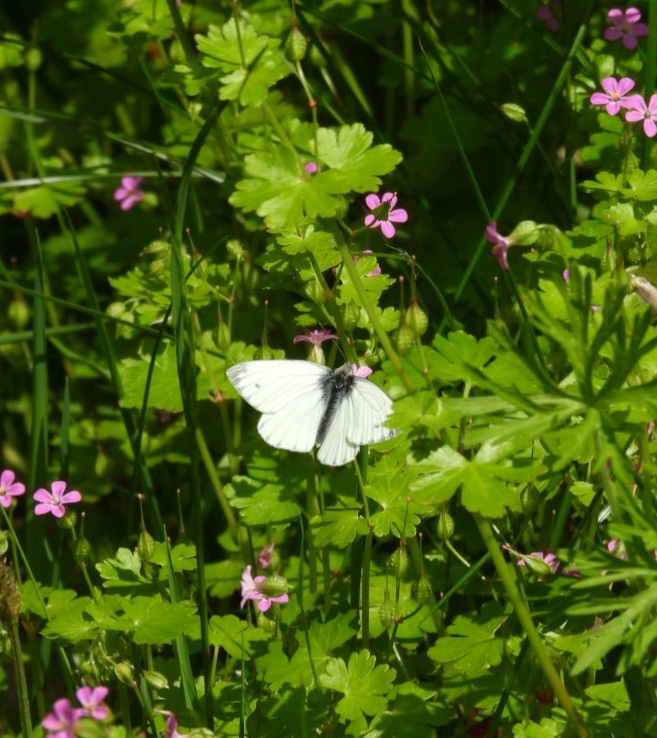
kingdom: Animalia
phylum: Arthropoda
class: Insecta
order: Lepidoptera
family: Pieridae
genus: Pieris
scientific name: Pieris napi
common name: Green-veined white
